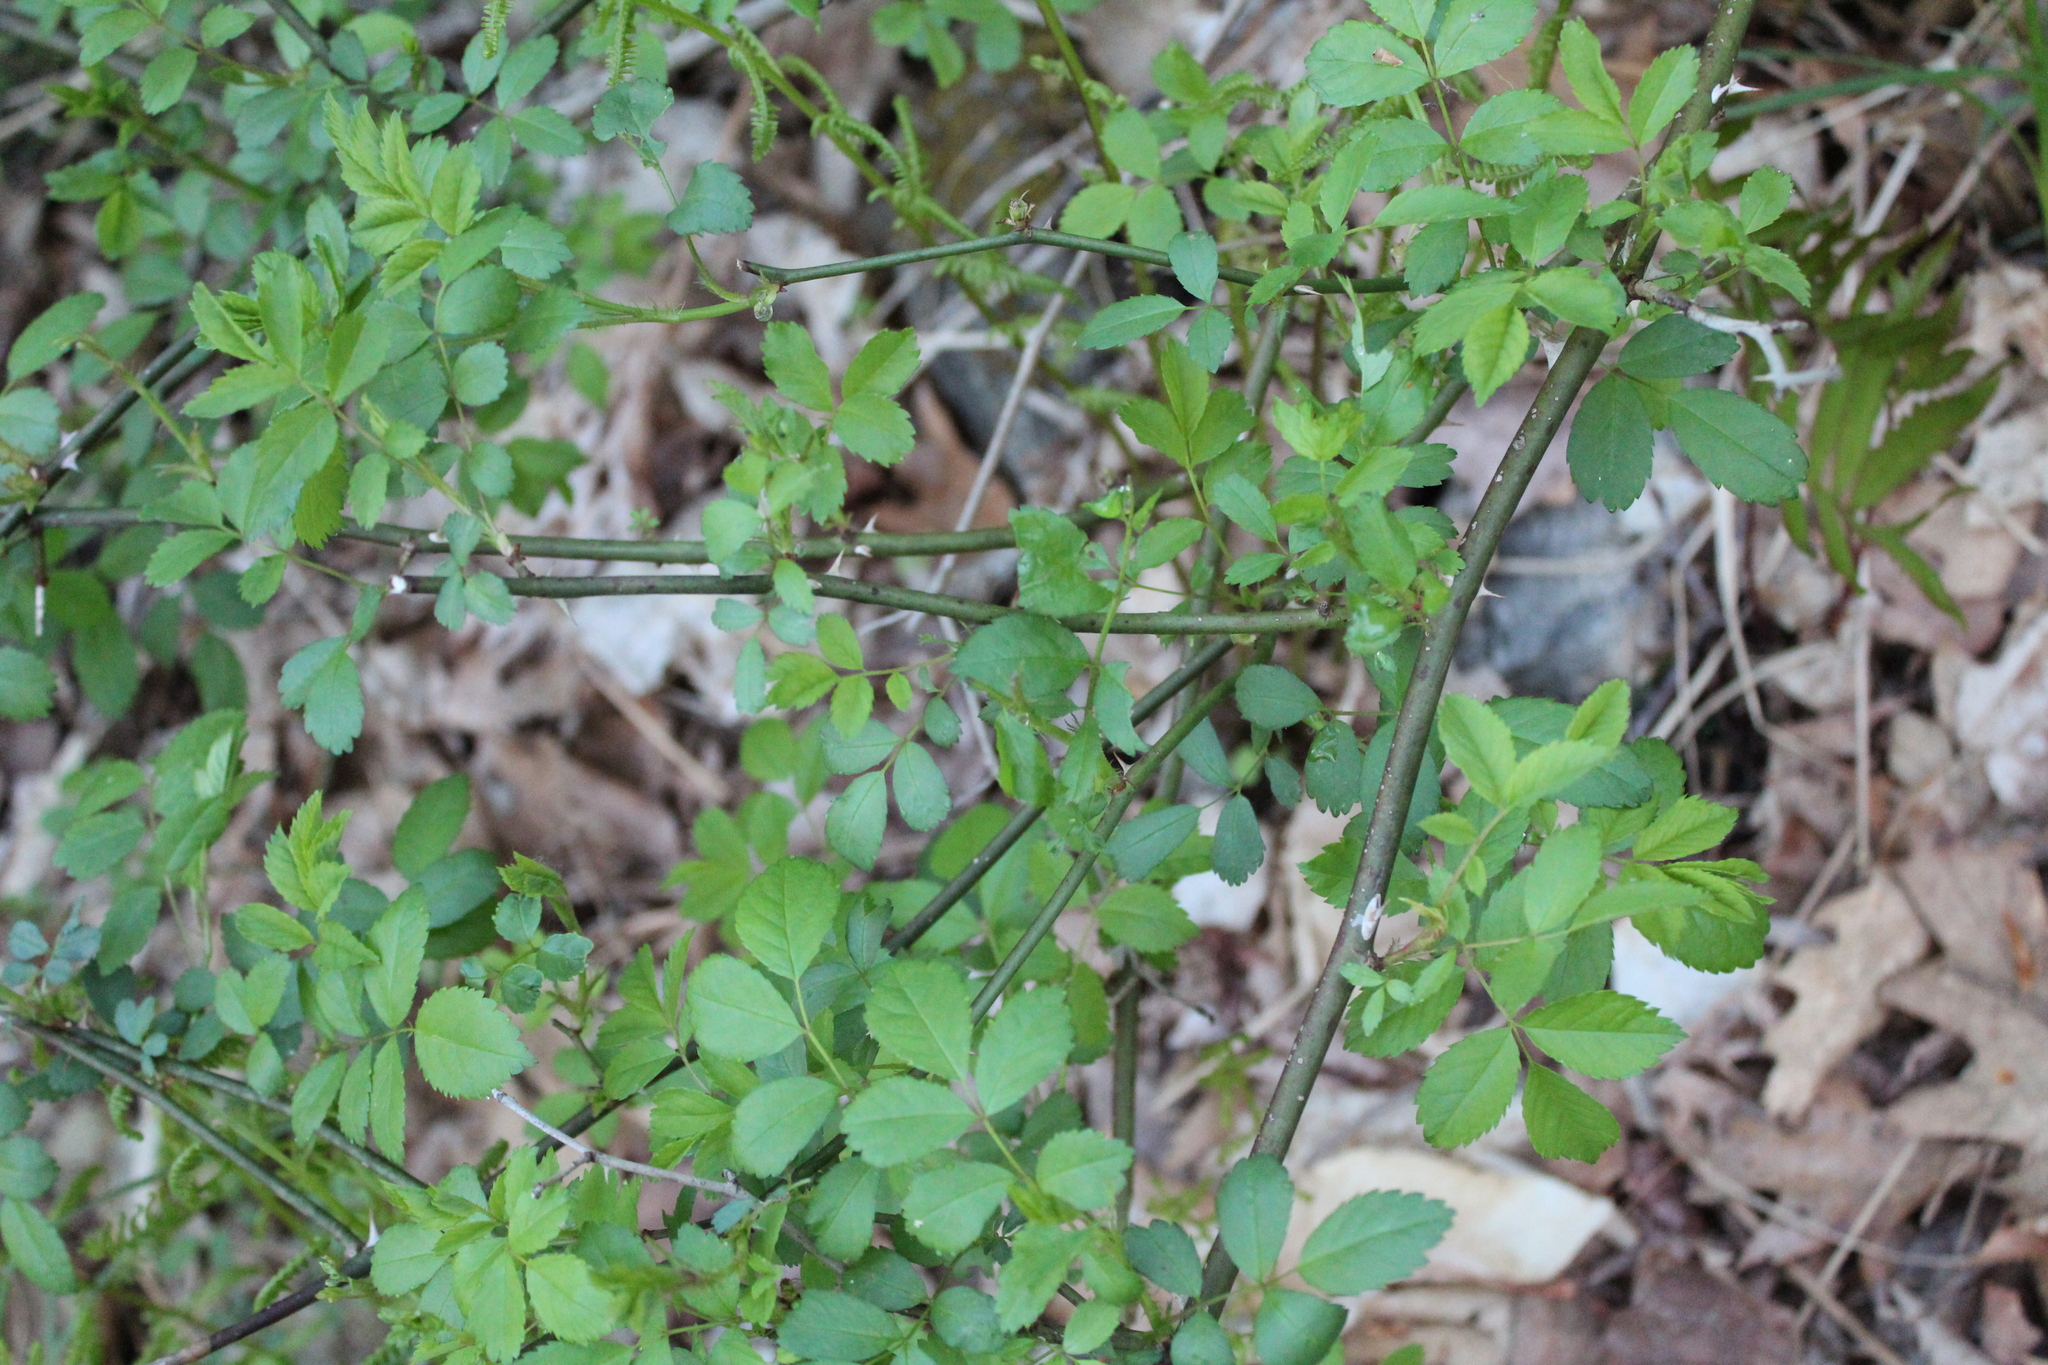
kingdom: Plantae
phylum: Tracheophyta
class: Magnoliopsida
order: Rosales
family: Rosaceae
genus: Rosa
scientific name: Rosa multiflora
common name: Multiflora rose
